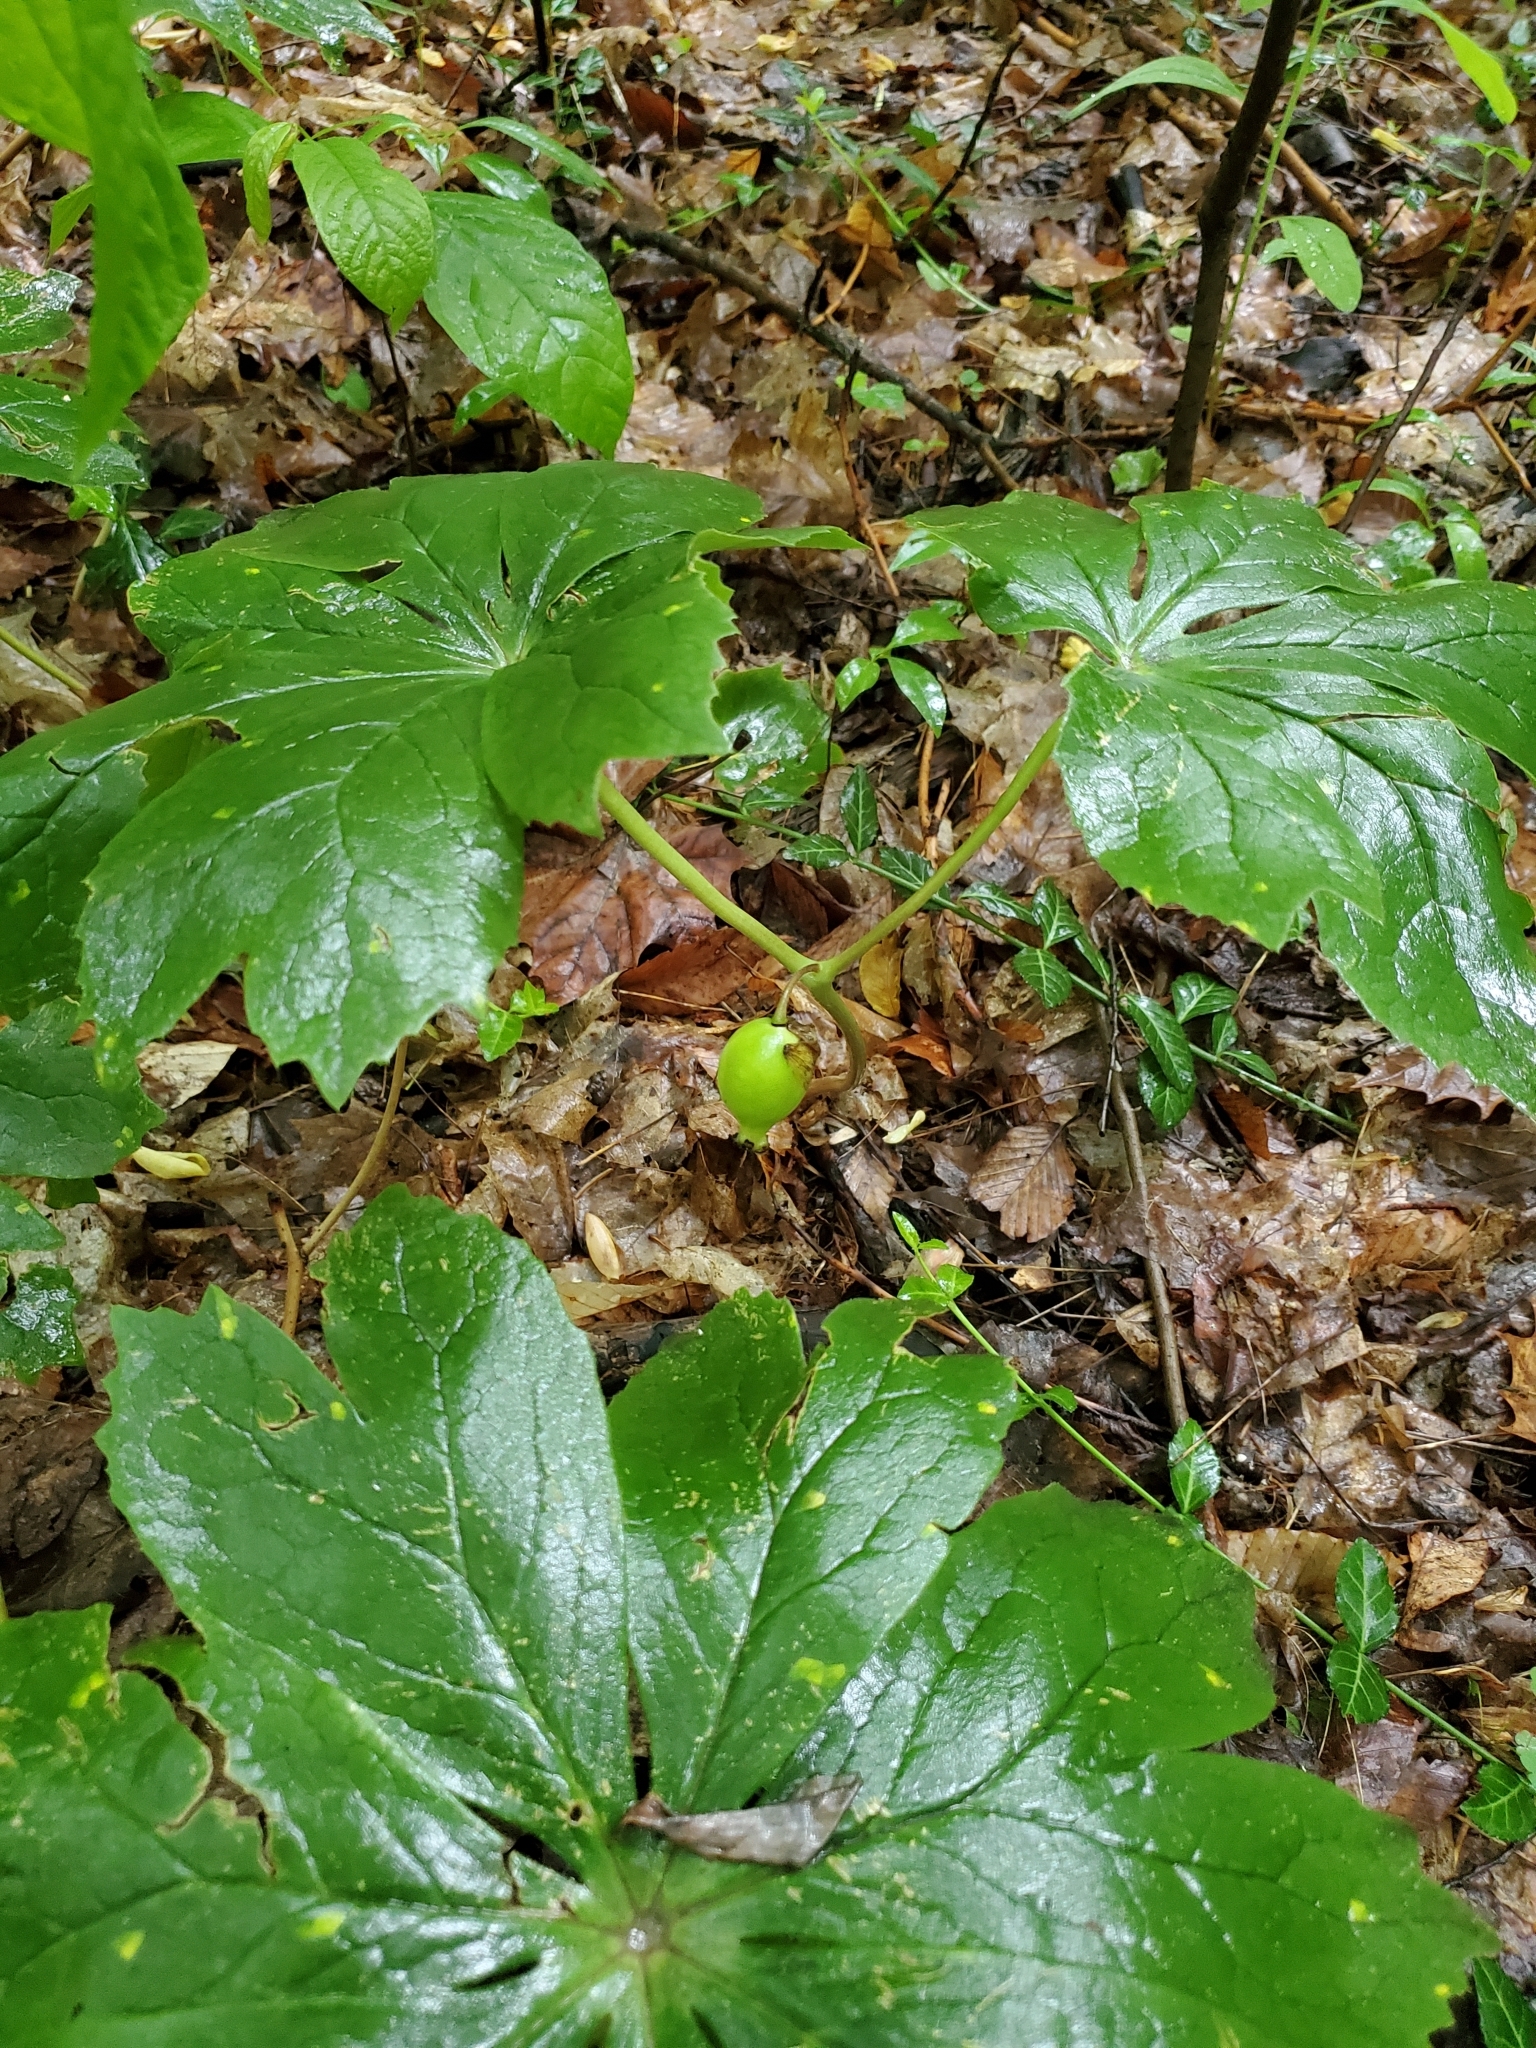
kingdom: Plantae
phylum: Tracheophyta
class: Magnoliopsida
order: Ranunculales
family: Berberidaceae
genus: Podophyllum
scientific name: Podophyllum peltatum
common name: Wild mandrake
